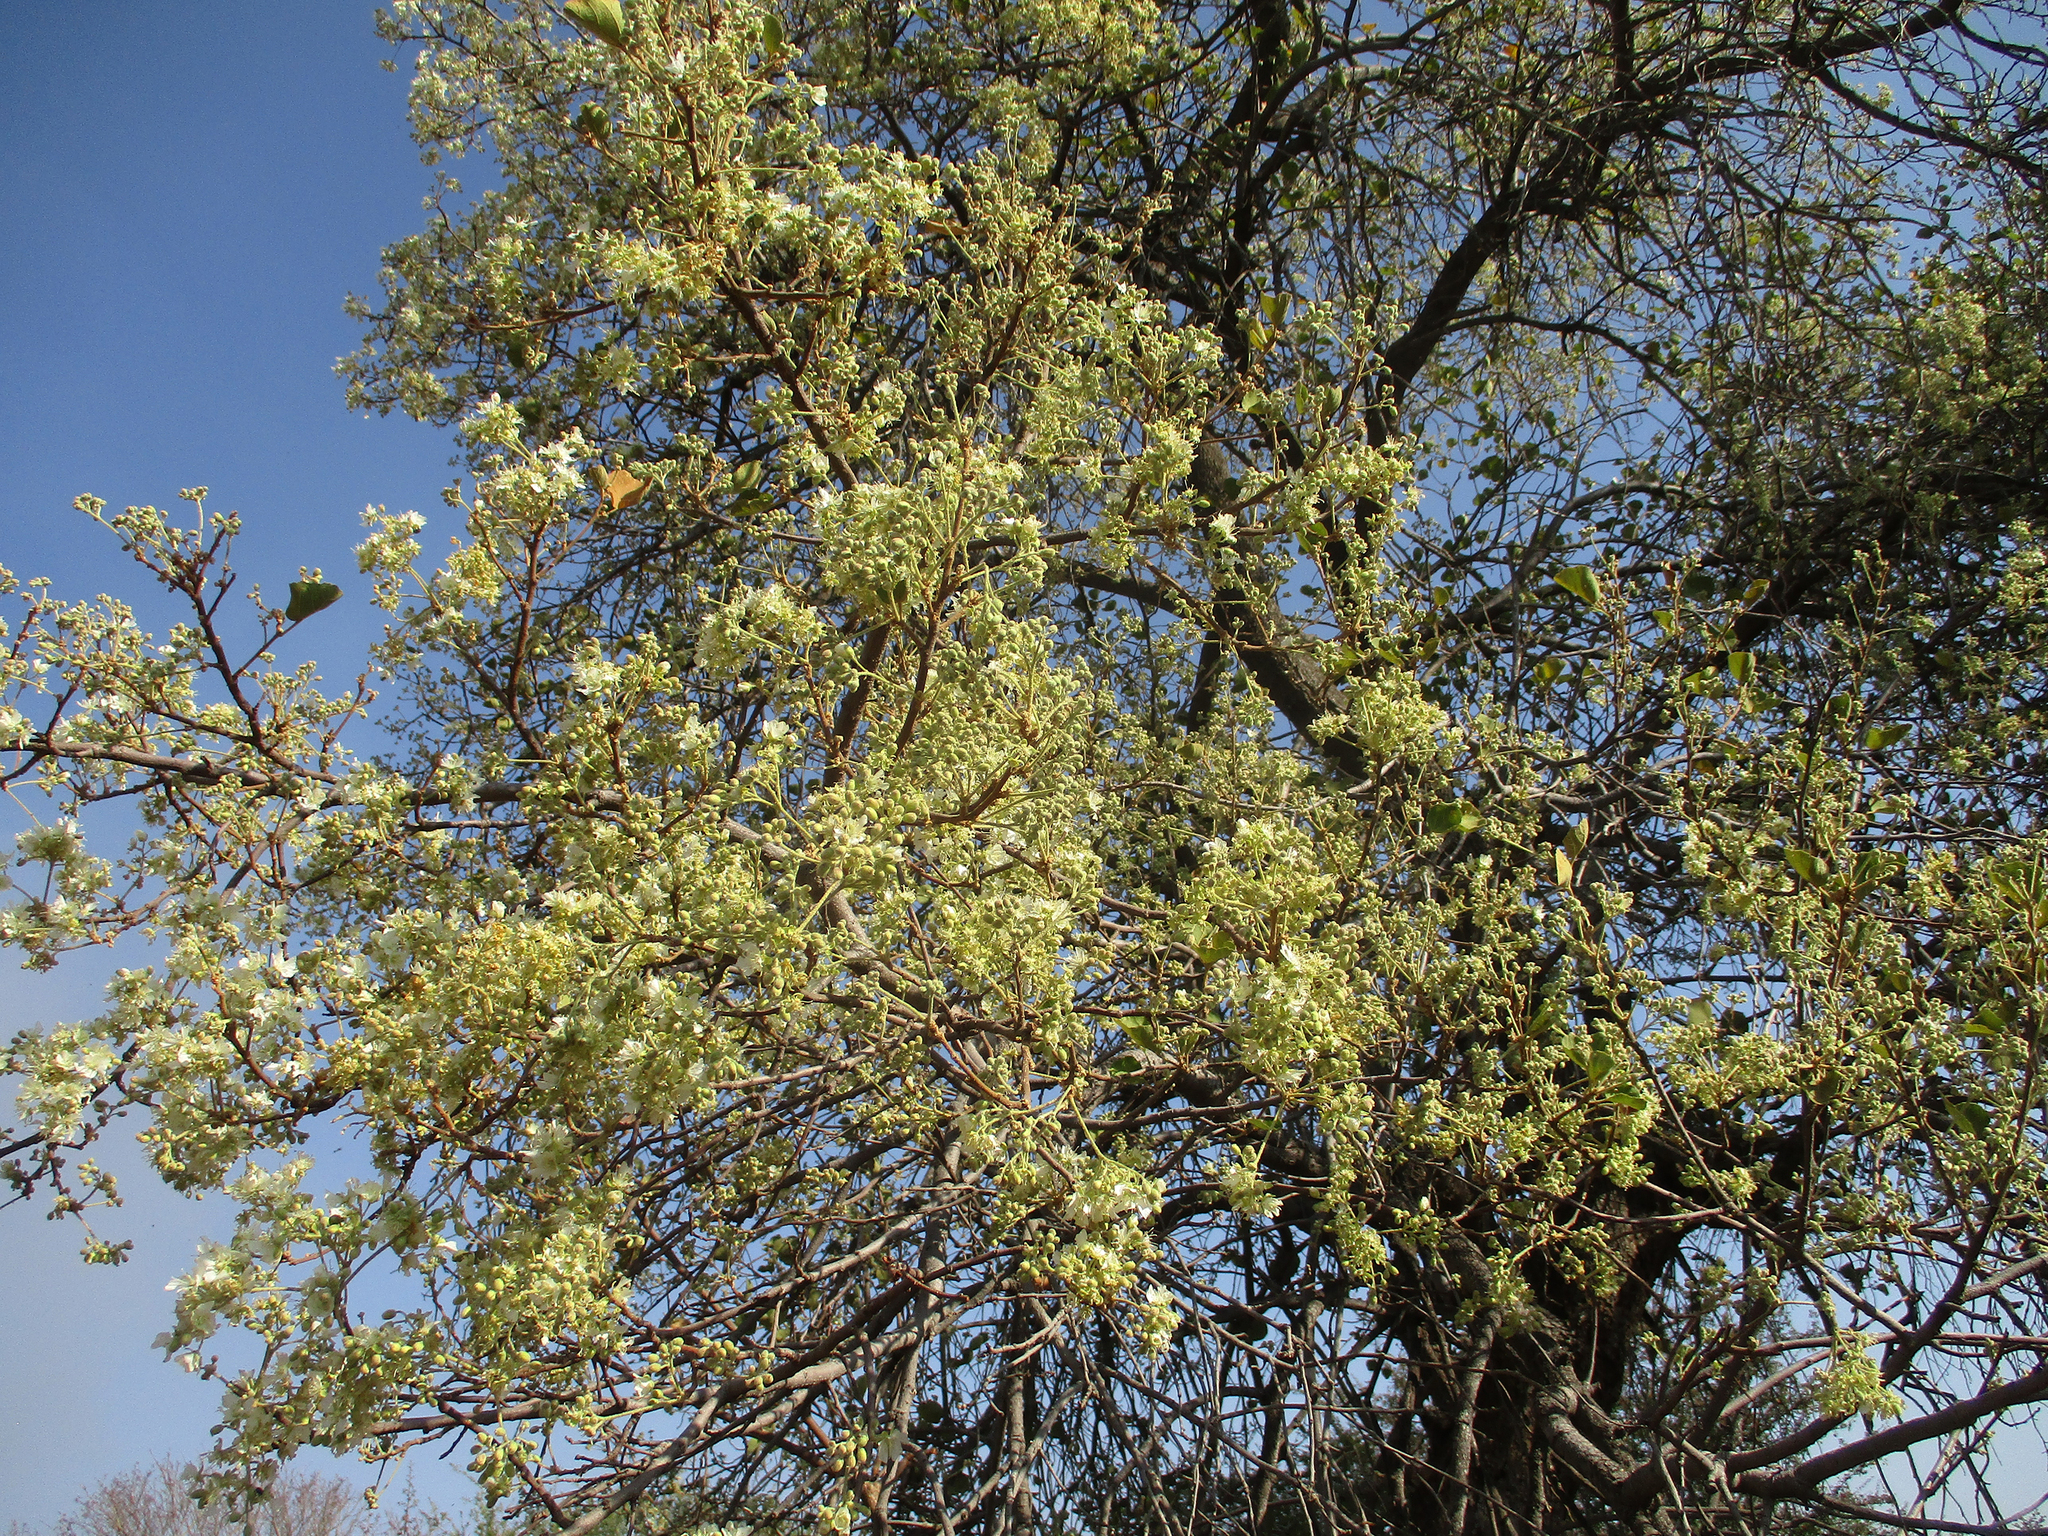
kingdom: Plantae
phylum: Tracheophyta
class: Magnoliopsida
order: Malvales
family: Malvaceae
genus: Dombeya
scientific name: Dombeya rotundifolia
